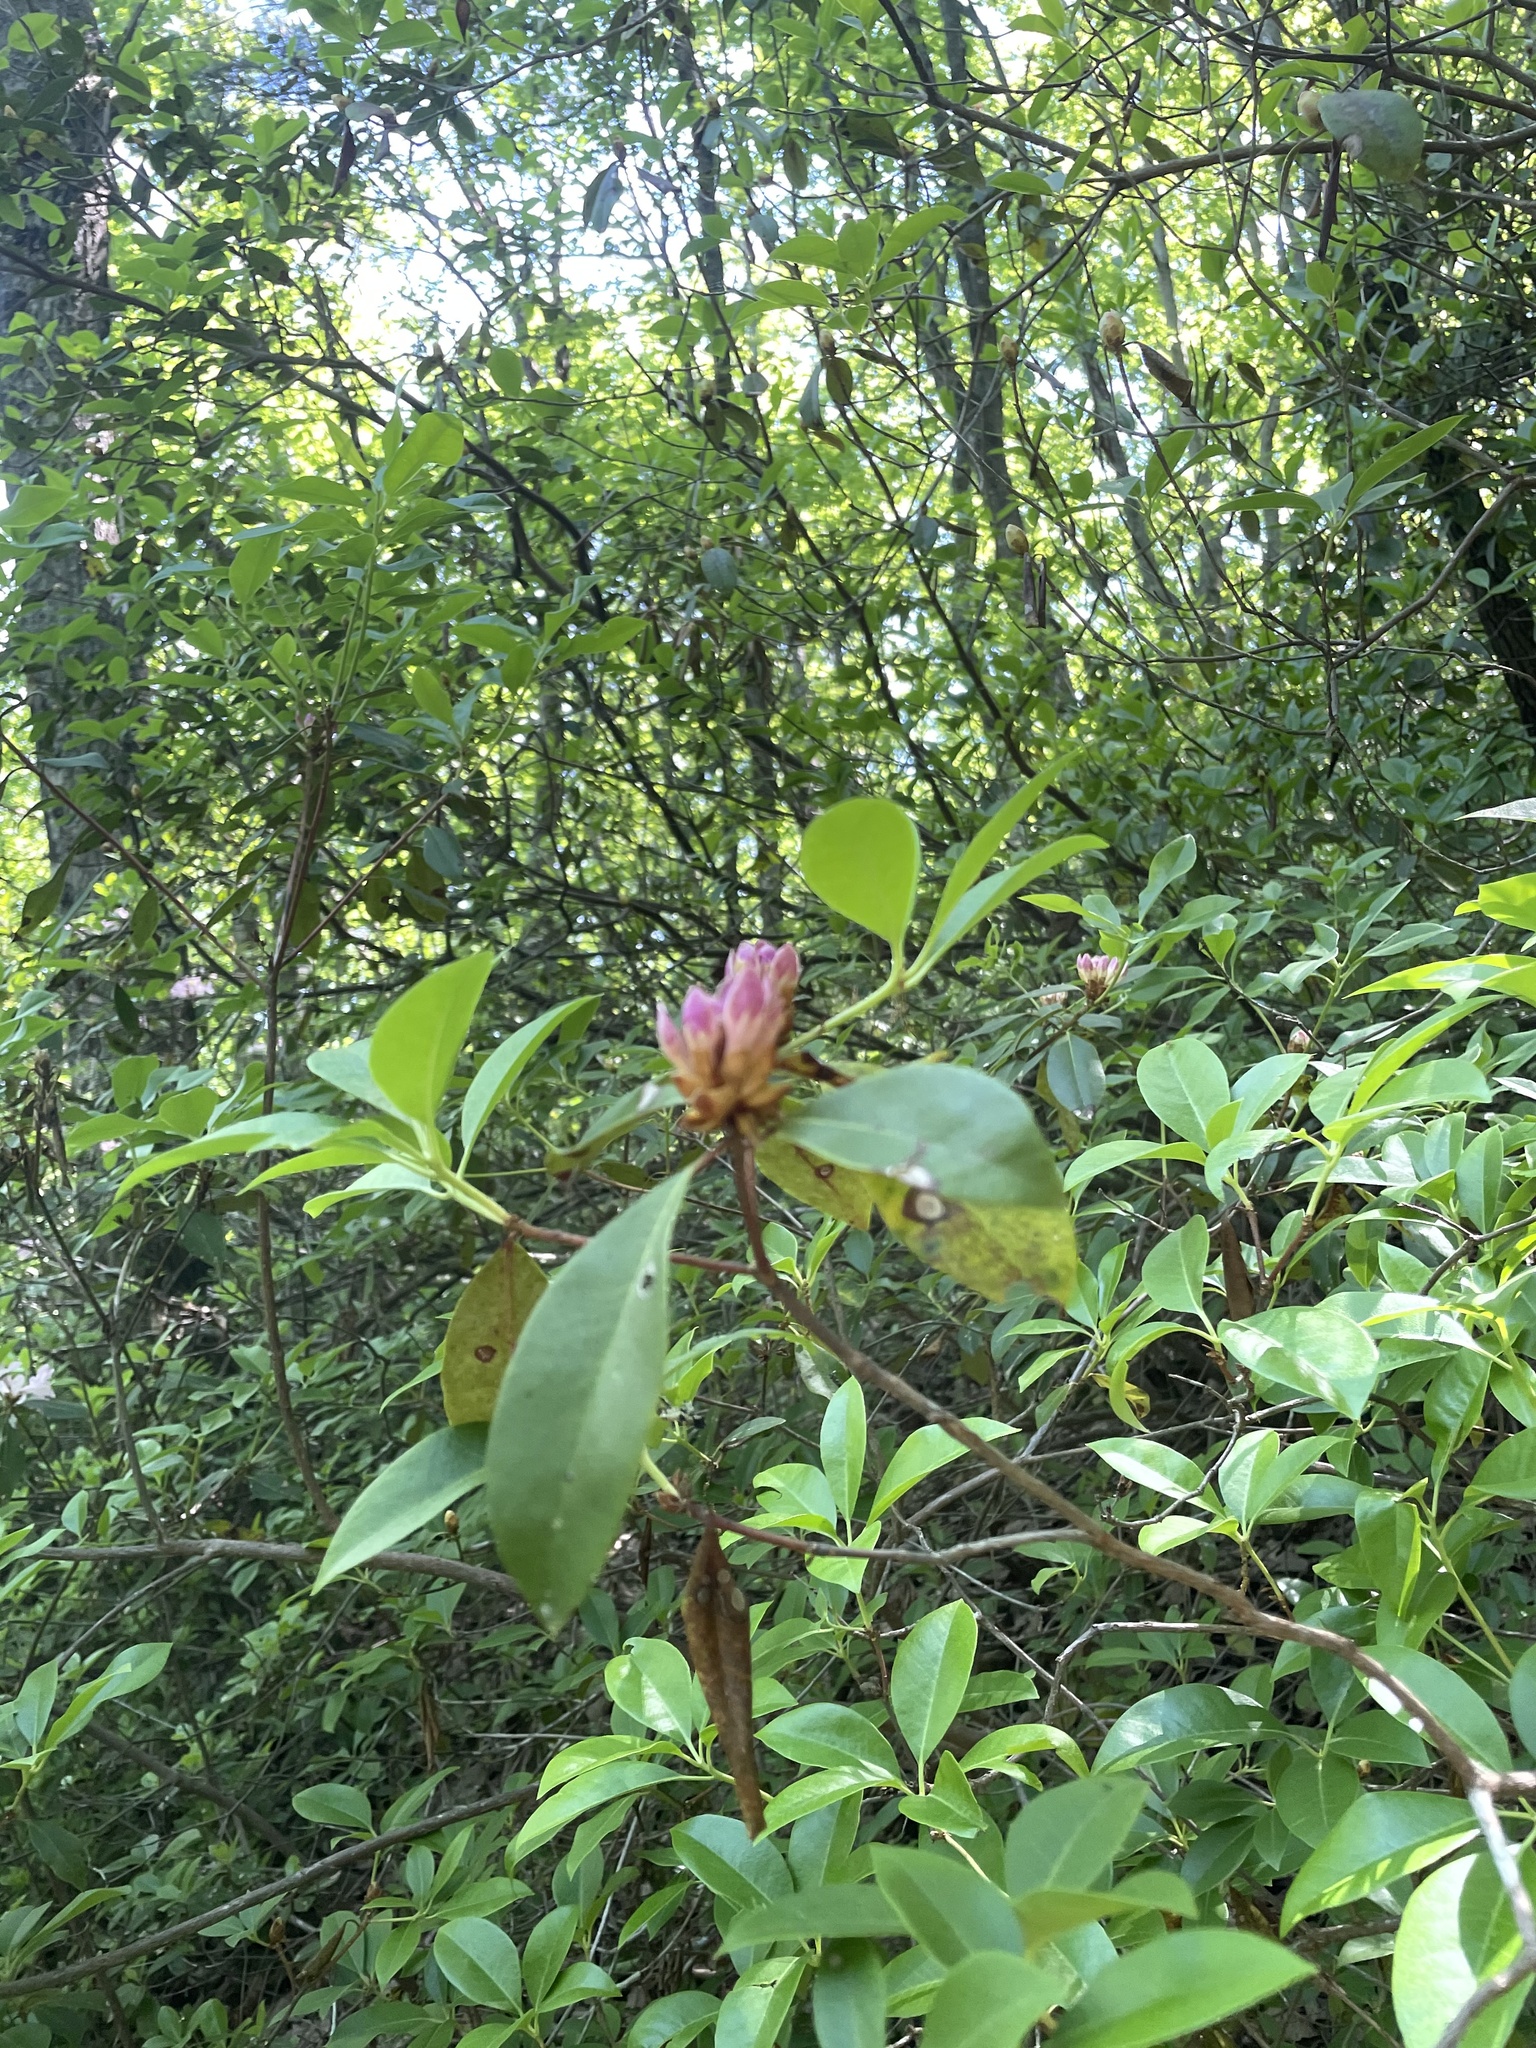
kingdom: Plantae
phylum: Tracheophyta
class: Magnoliopsida
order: Ericales
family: Ericaceae
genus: Rhododendron
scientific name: Rhododendron minus
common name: Piedmont rhododendron
